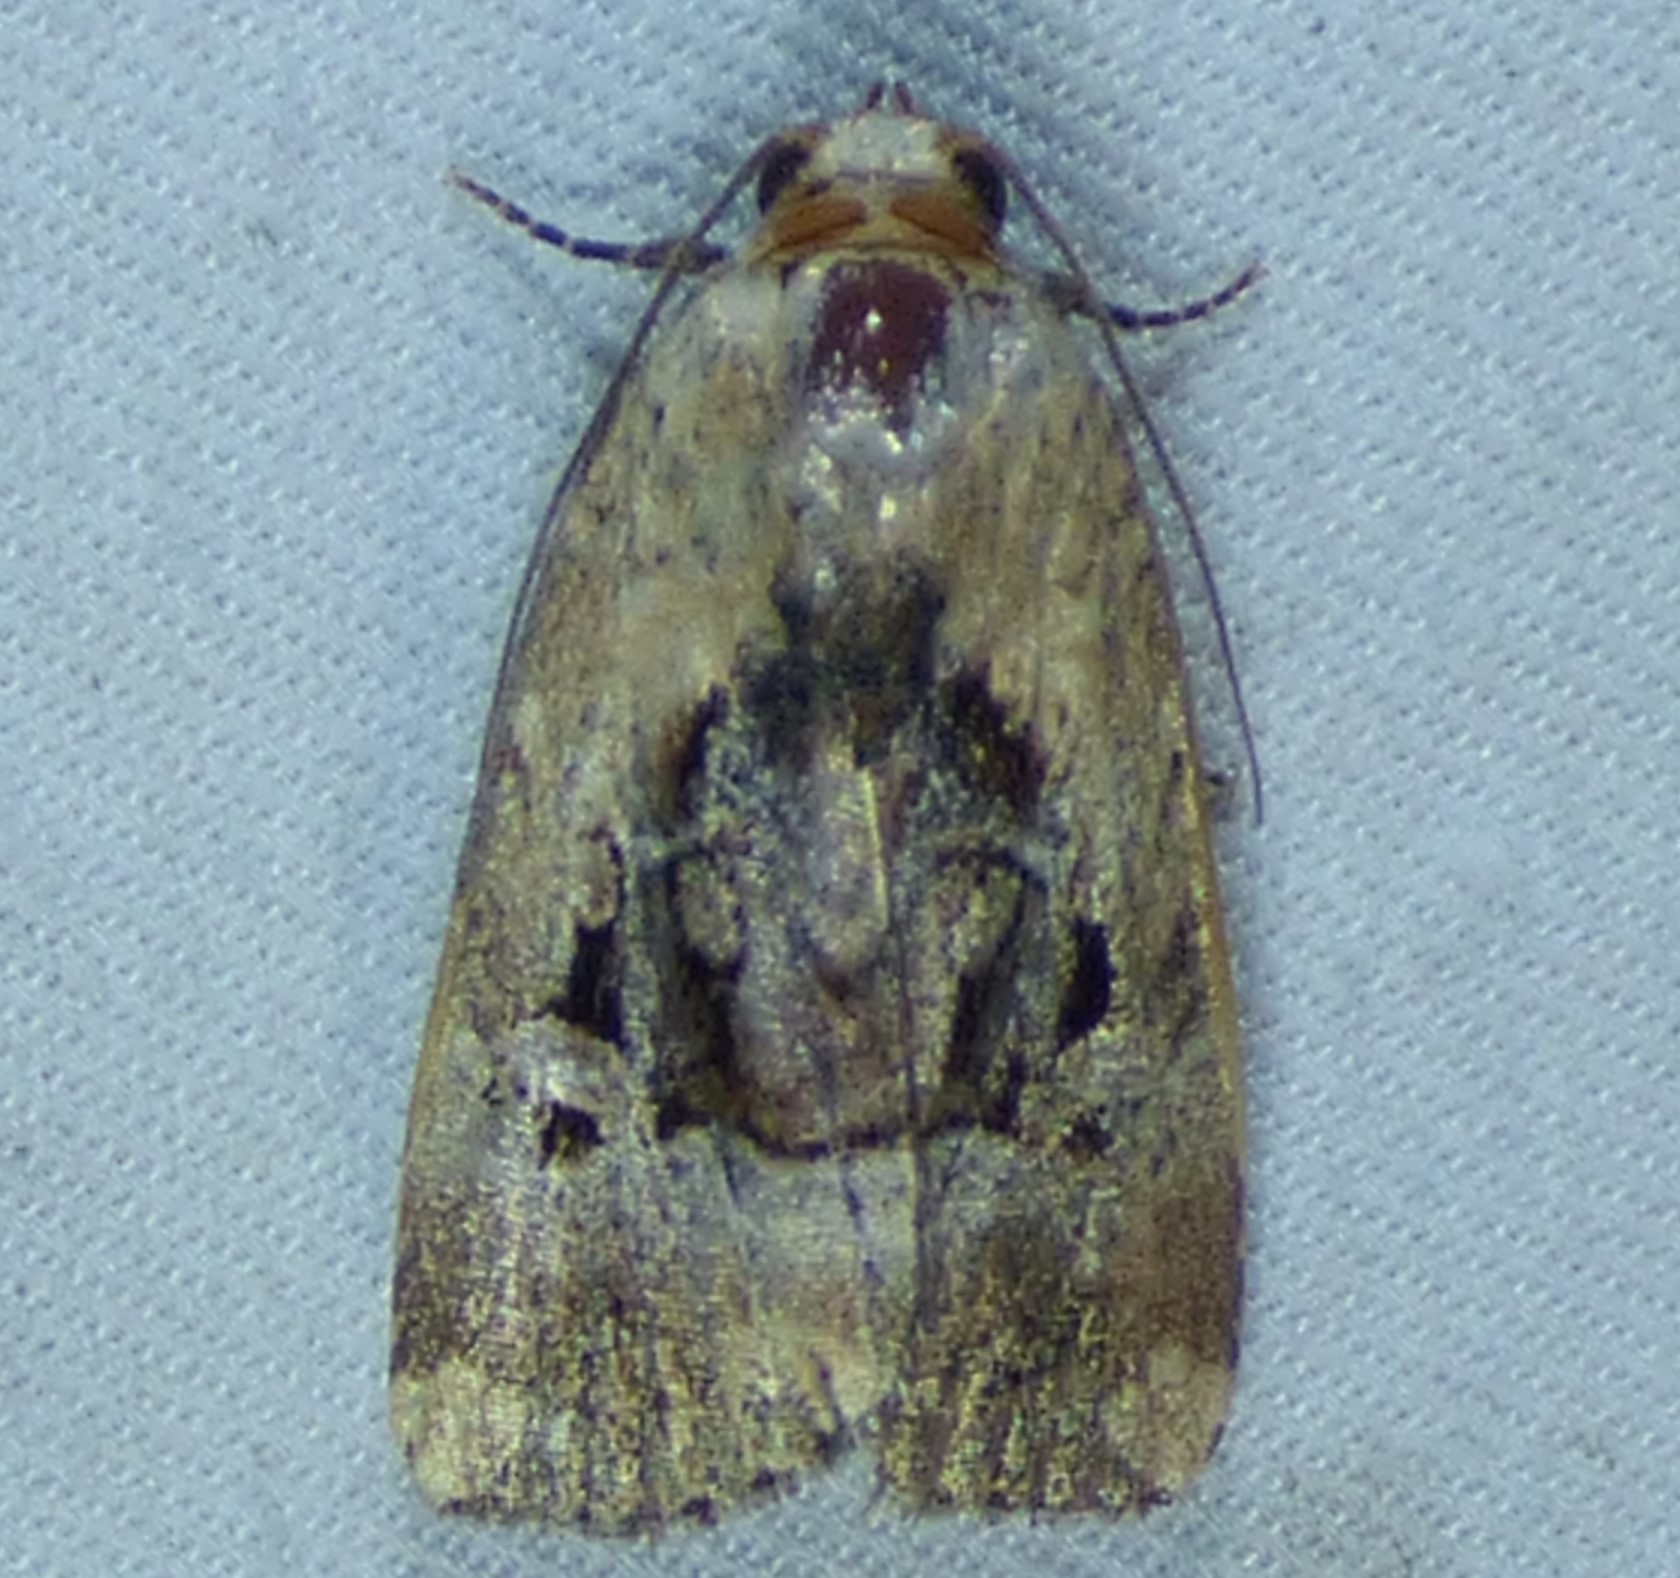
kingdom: Animalia
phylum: Arthropoda
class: Insecta
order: Lepidoptera
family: Noctuidae
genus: Elaphria
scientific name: Elaphria chalcedonia
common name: Chalcedony midget
